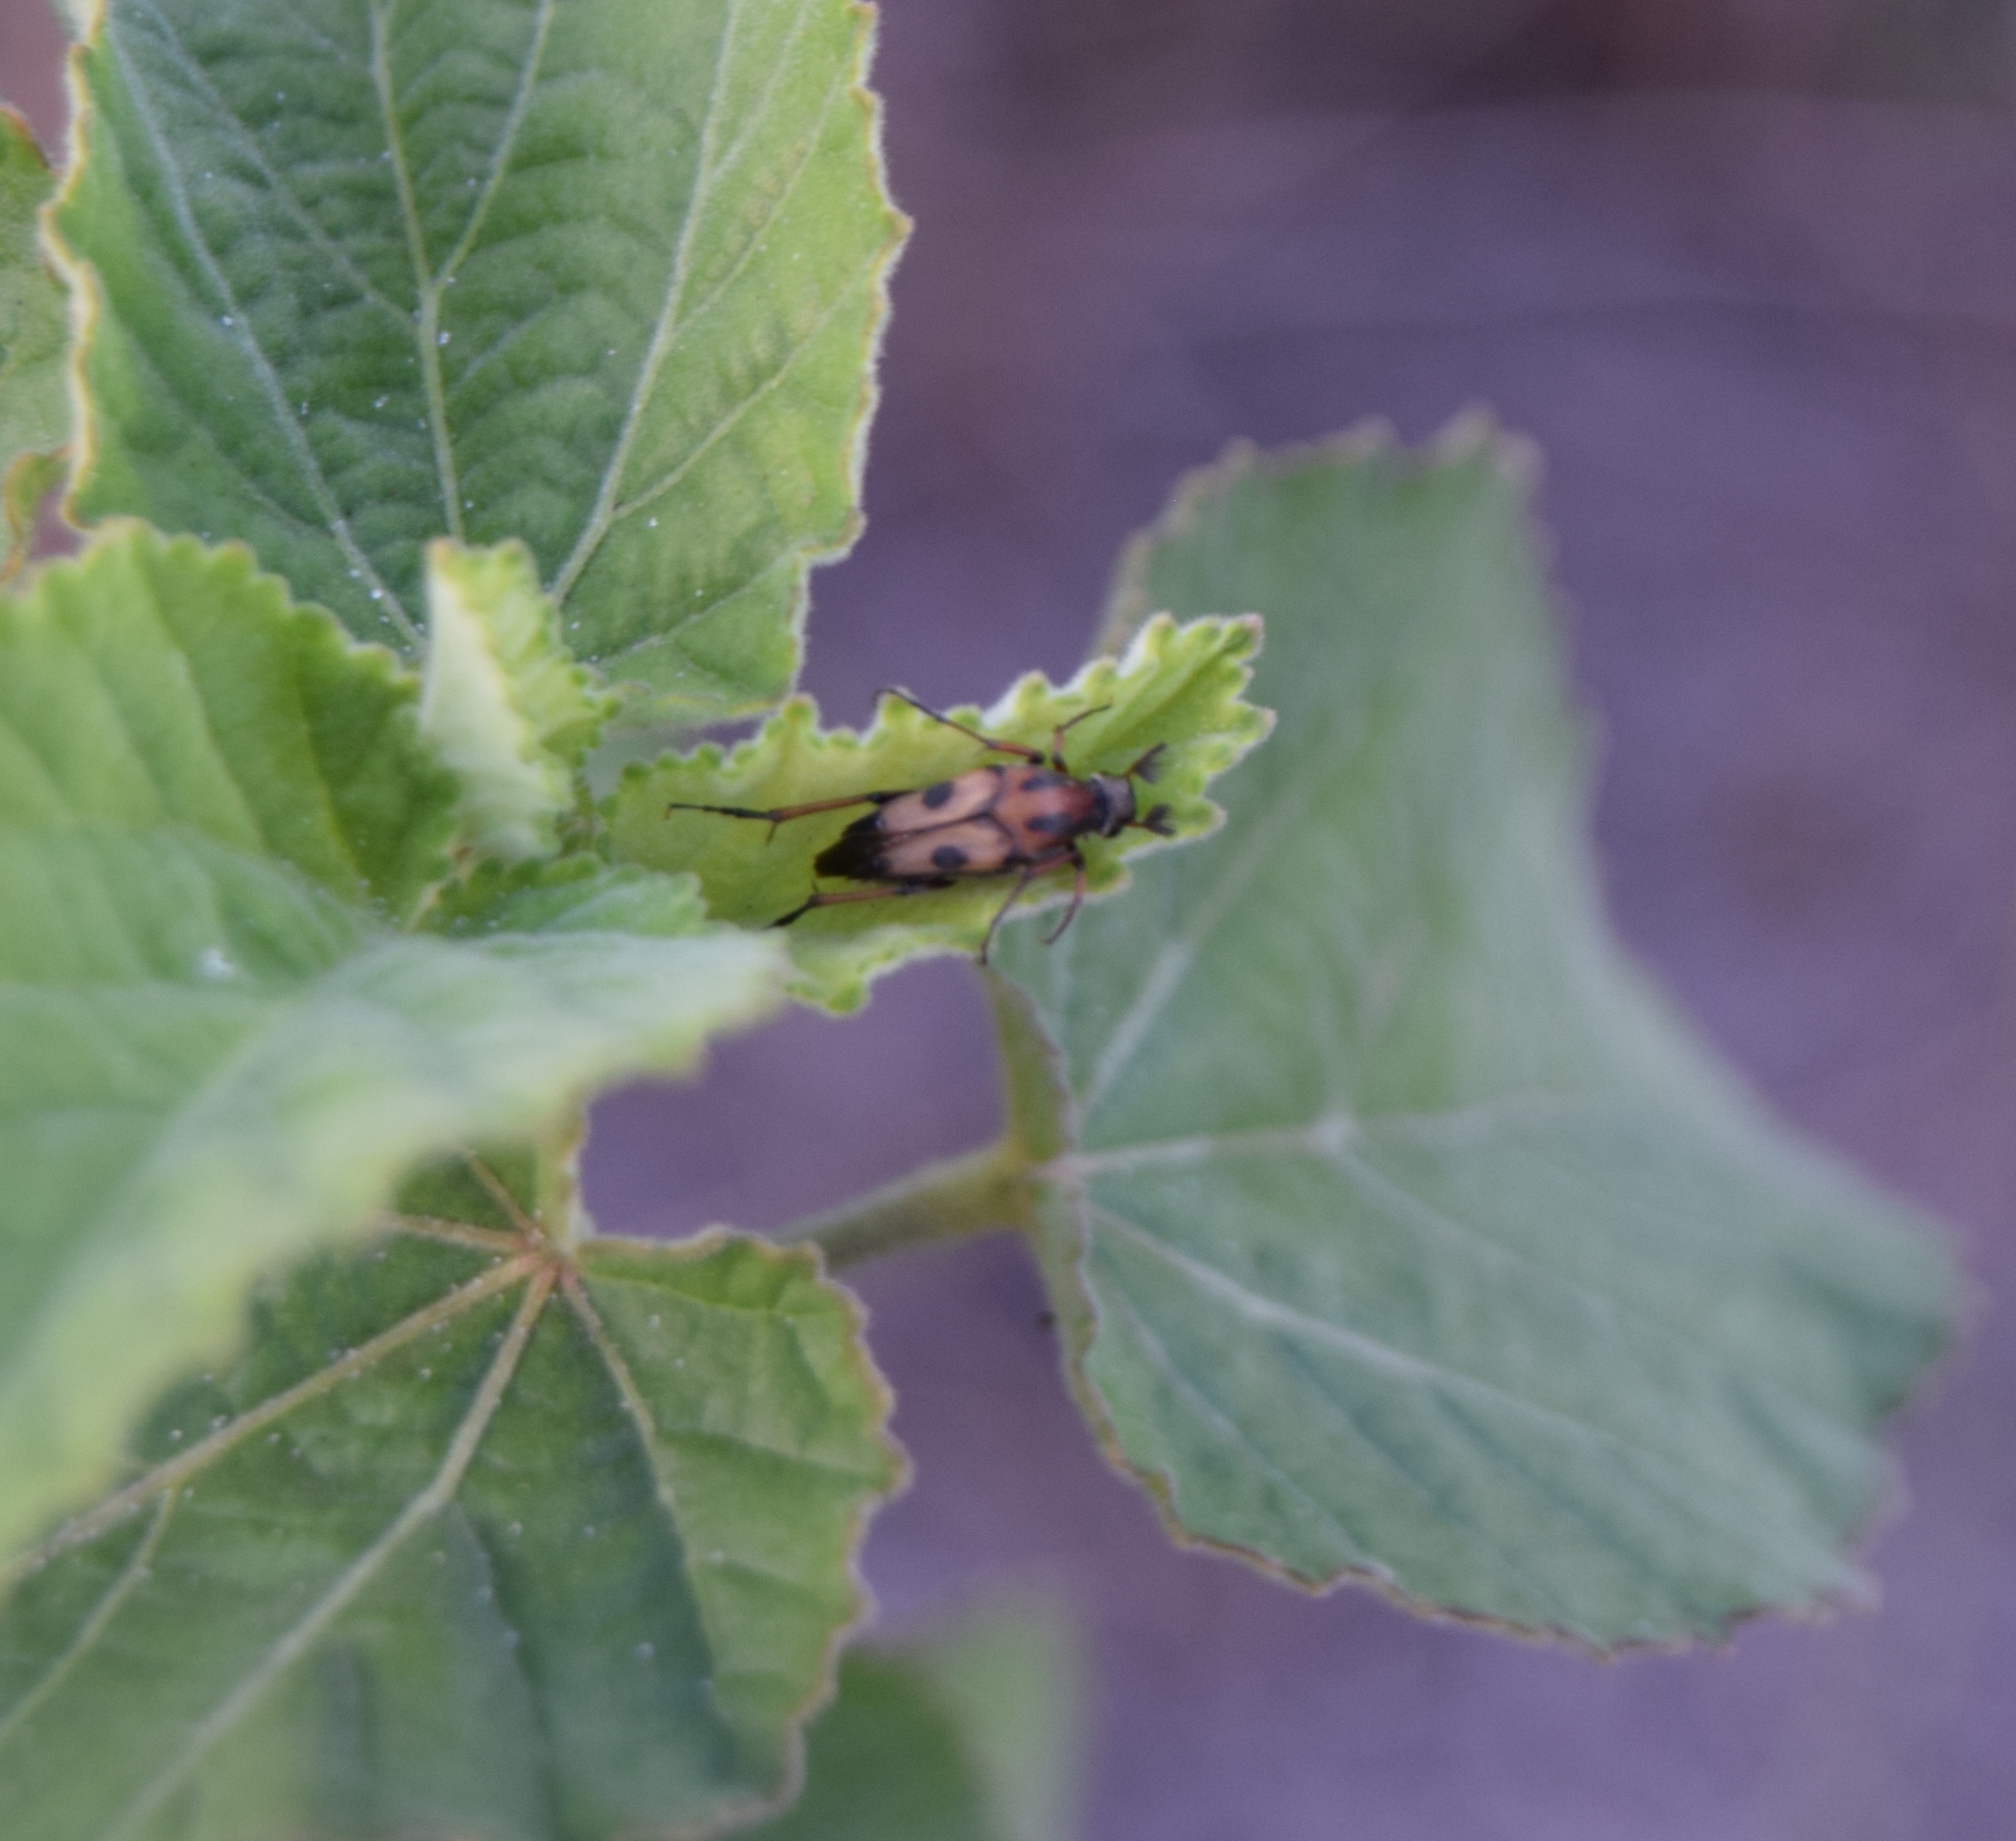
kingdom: Animalia
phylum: Arthropoda
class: Insecta
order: Coleoptera
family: Ripiphoridae
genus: Macrosiagon
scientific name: Macrosiagon octomaculatus
